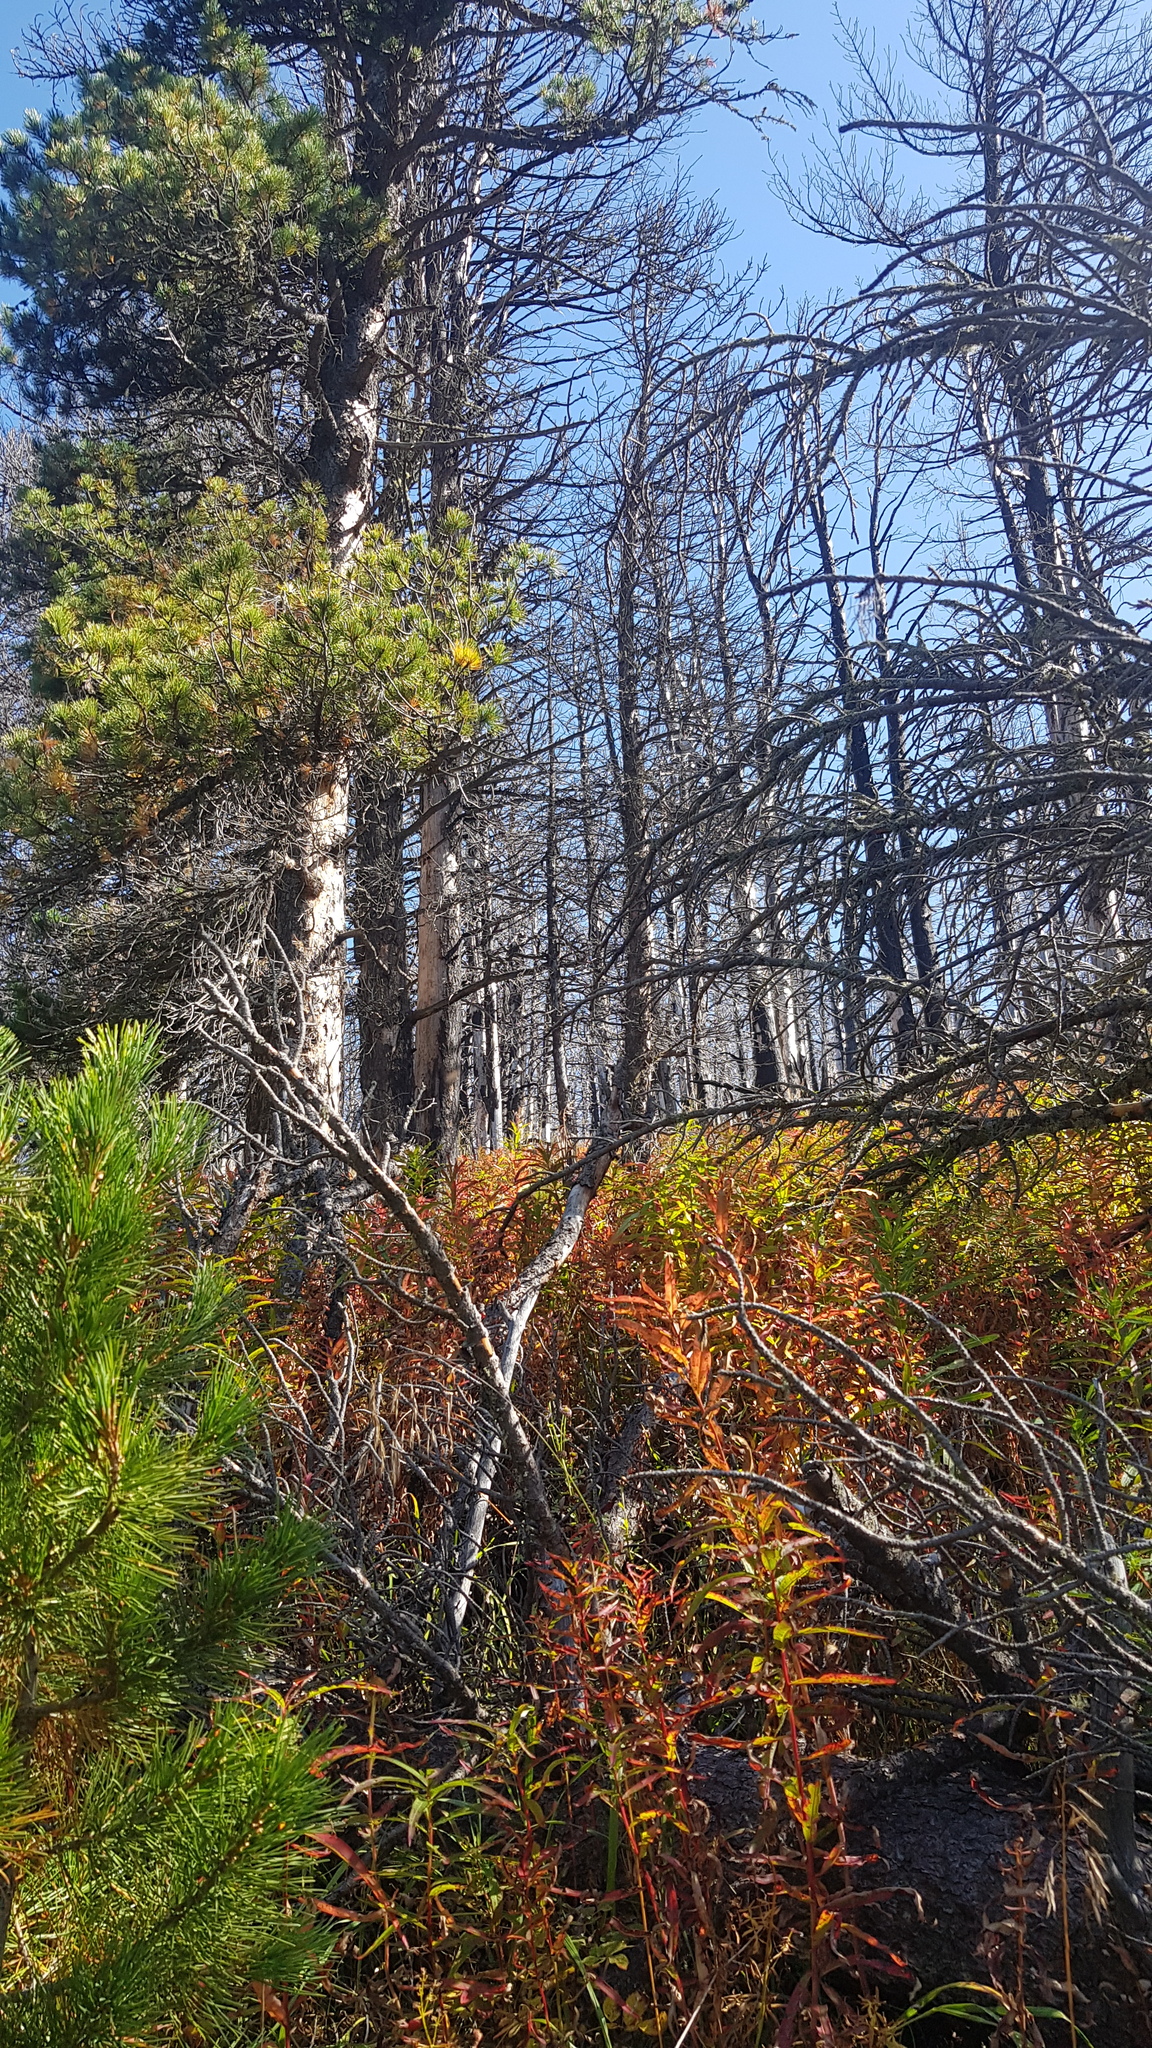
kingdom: Plantae
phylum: Tracheophyta
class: Pinopsida
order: Pinales
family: Pinaceae
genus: Pinus
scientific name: Pinus sibirica
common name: Siberian pine
